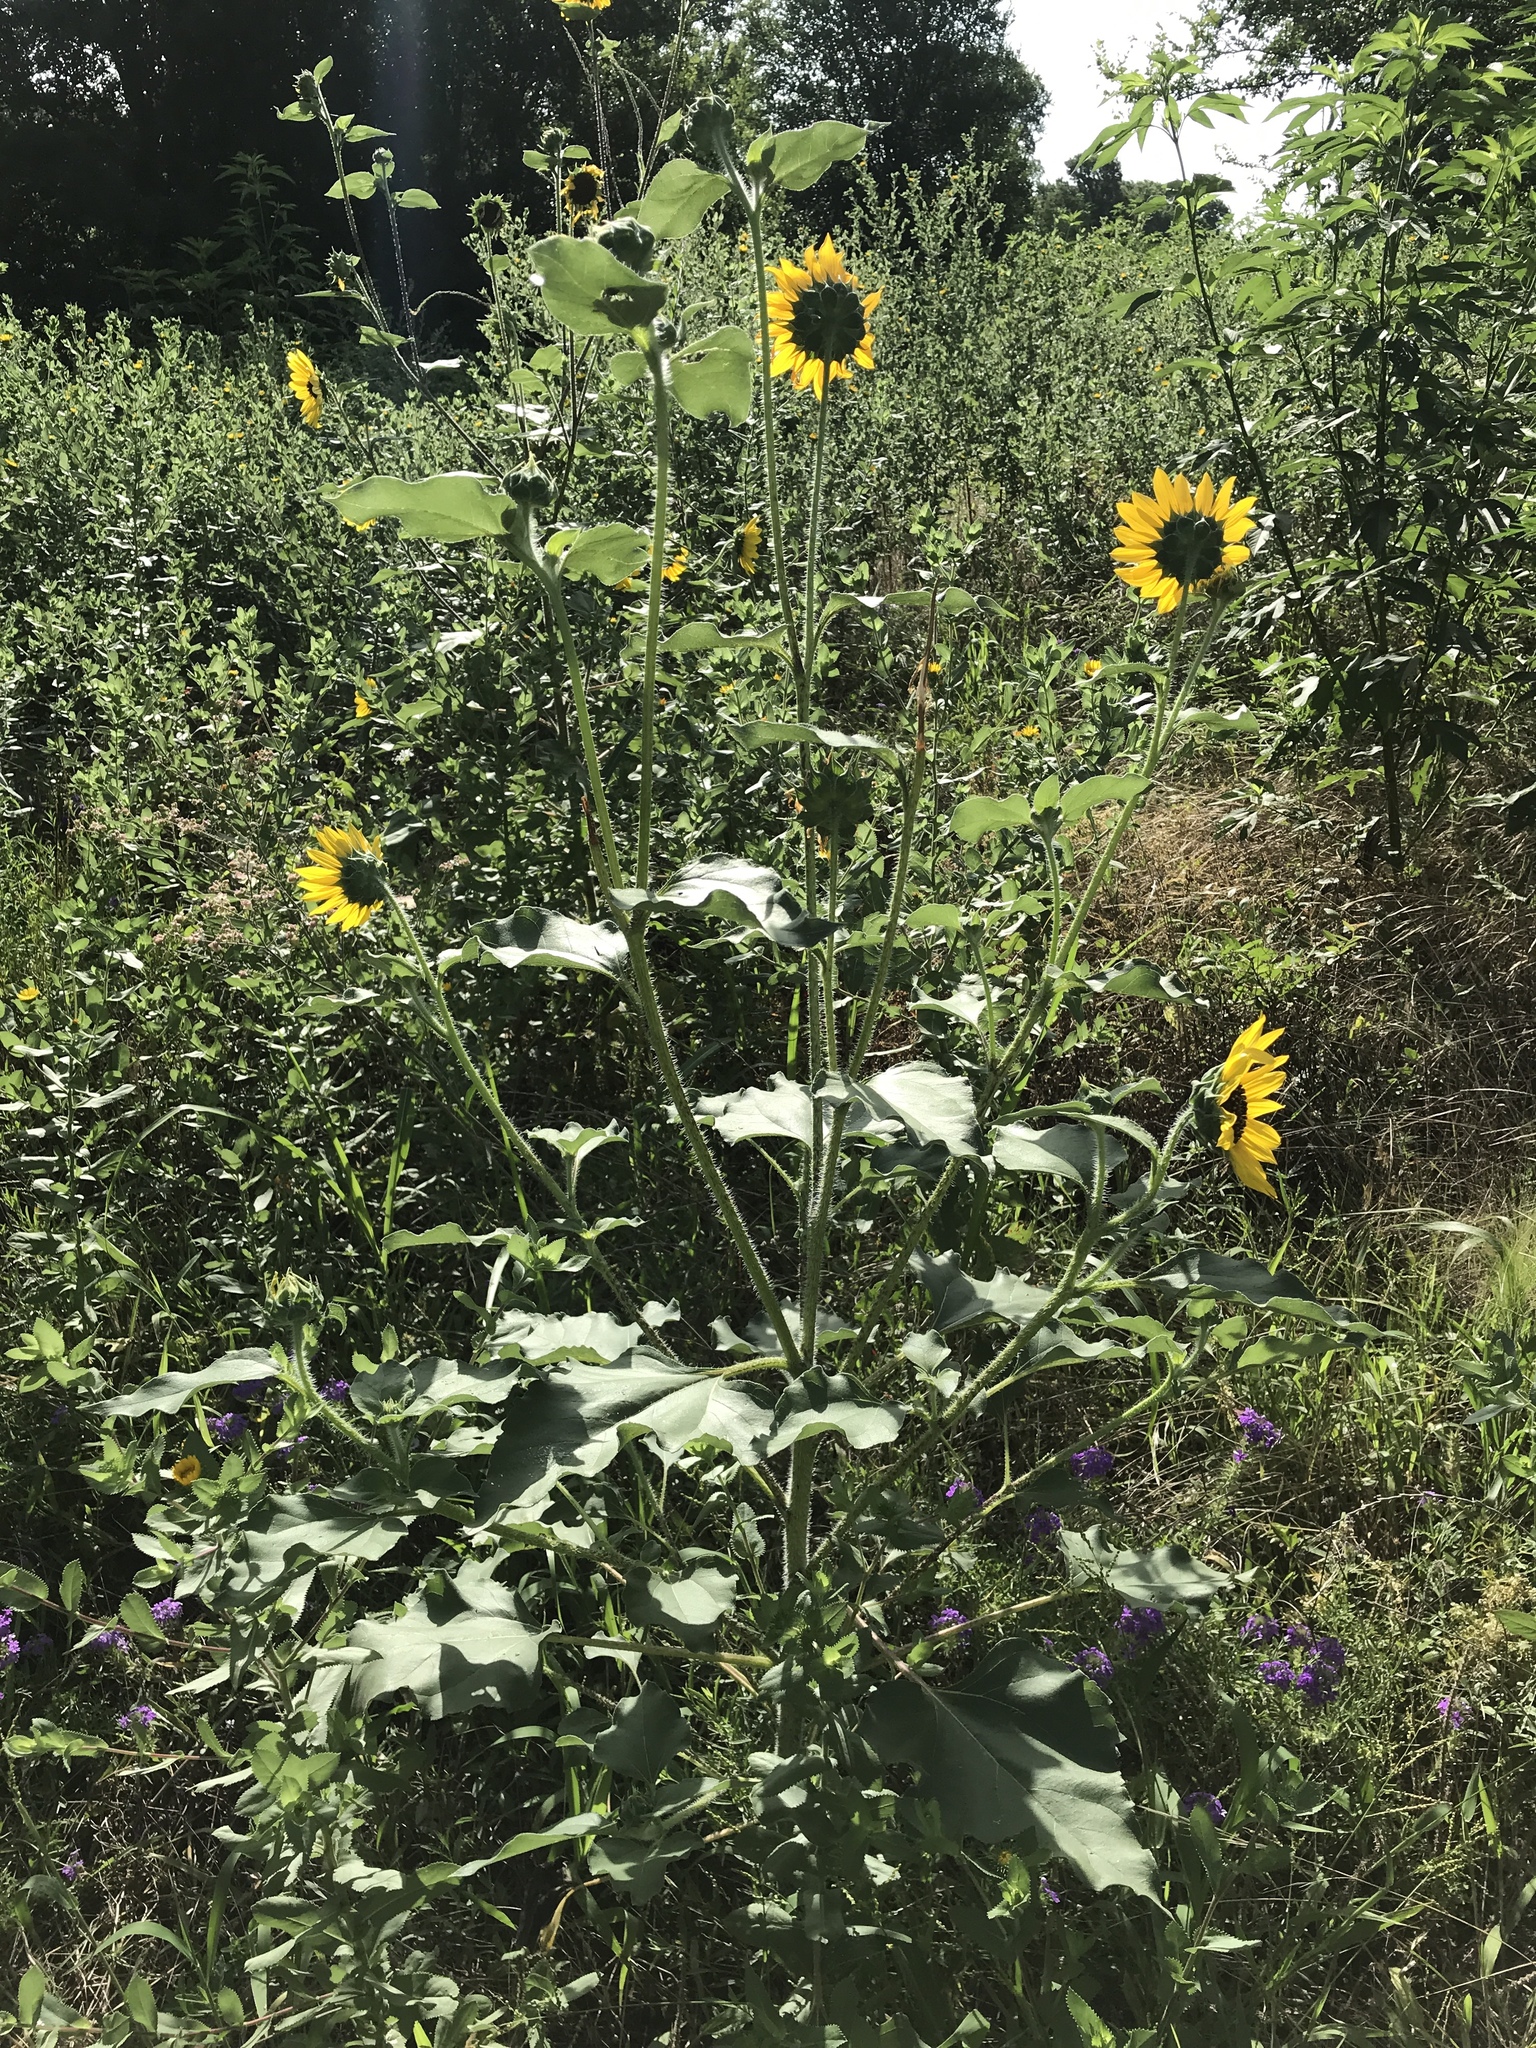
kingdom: Plantae
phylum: Tracheophyta
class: Magnoliopsida
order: Asterales
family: Asteraceae
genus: Helianthus
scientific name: Helianthus annuus
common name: Sunflower
